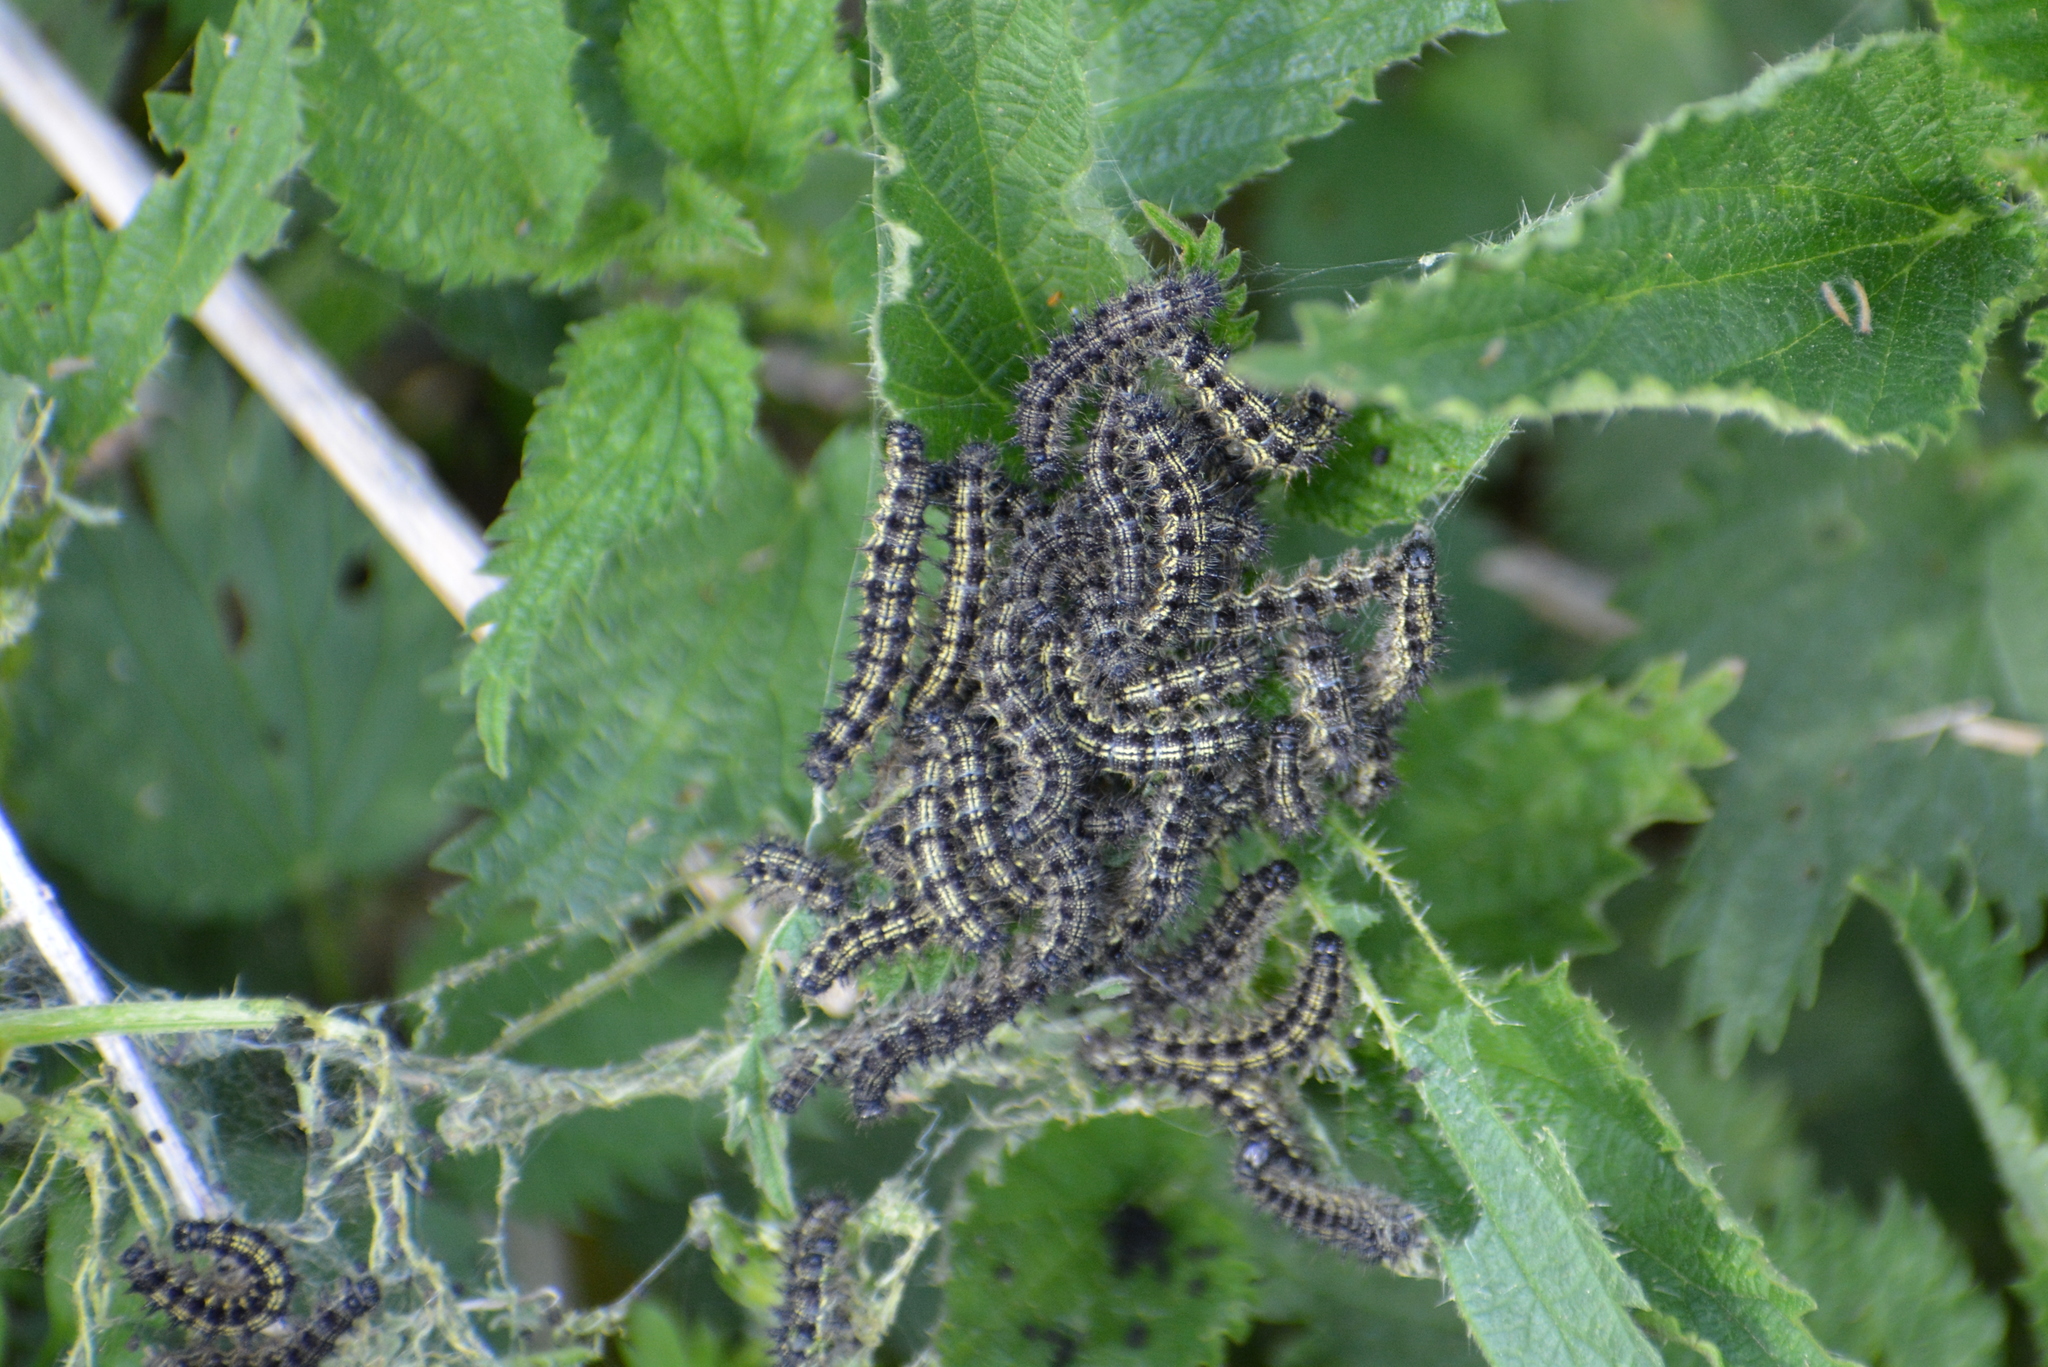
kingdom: Animalia
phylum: Arthropoda
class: Insecta
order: Lepidoptera
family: Nymphalidae
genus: Aglais
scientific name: Aglais urticae
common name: Small tortoiseshell
